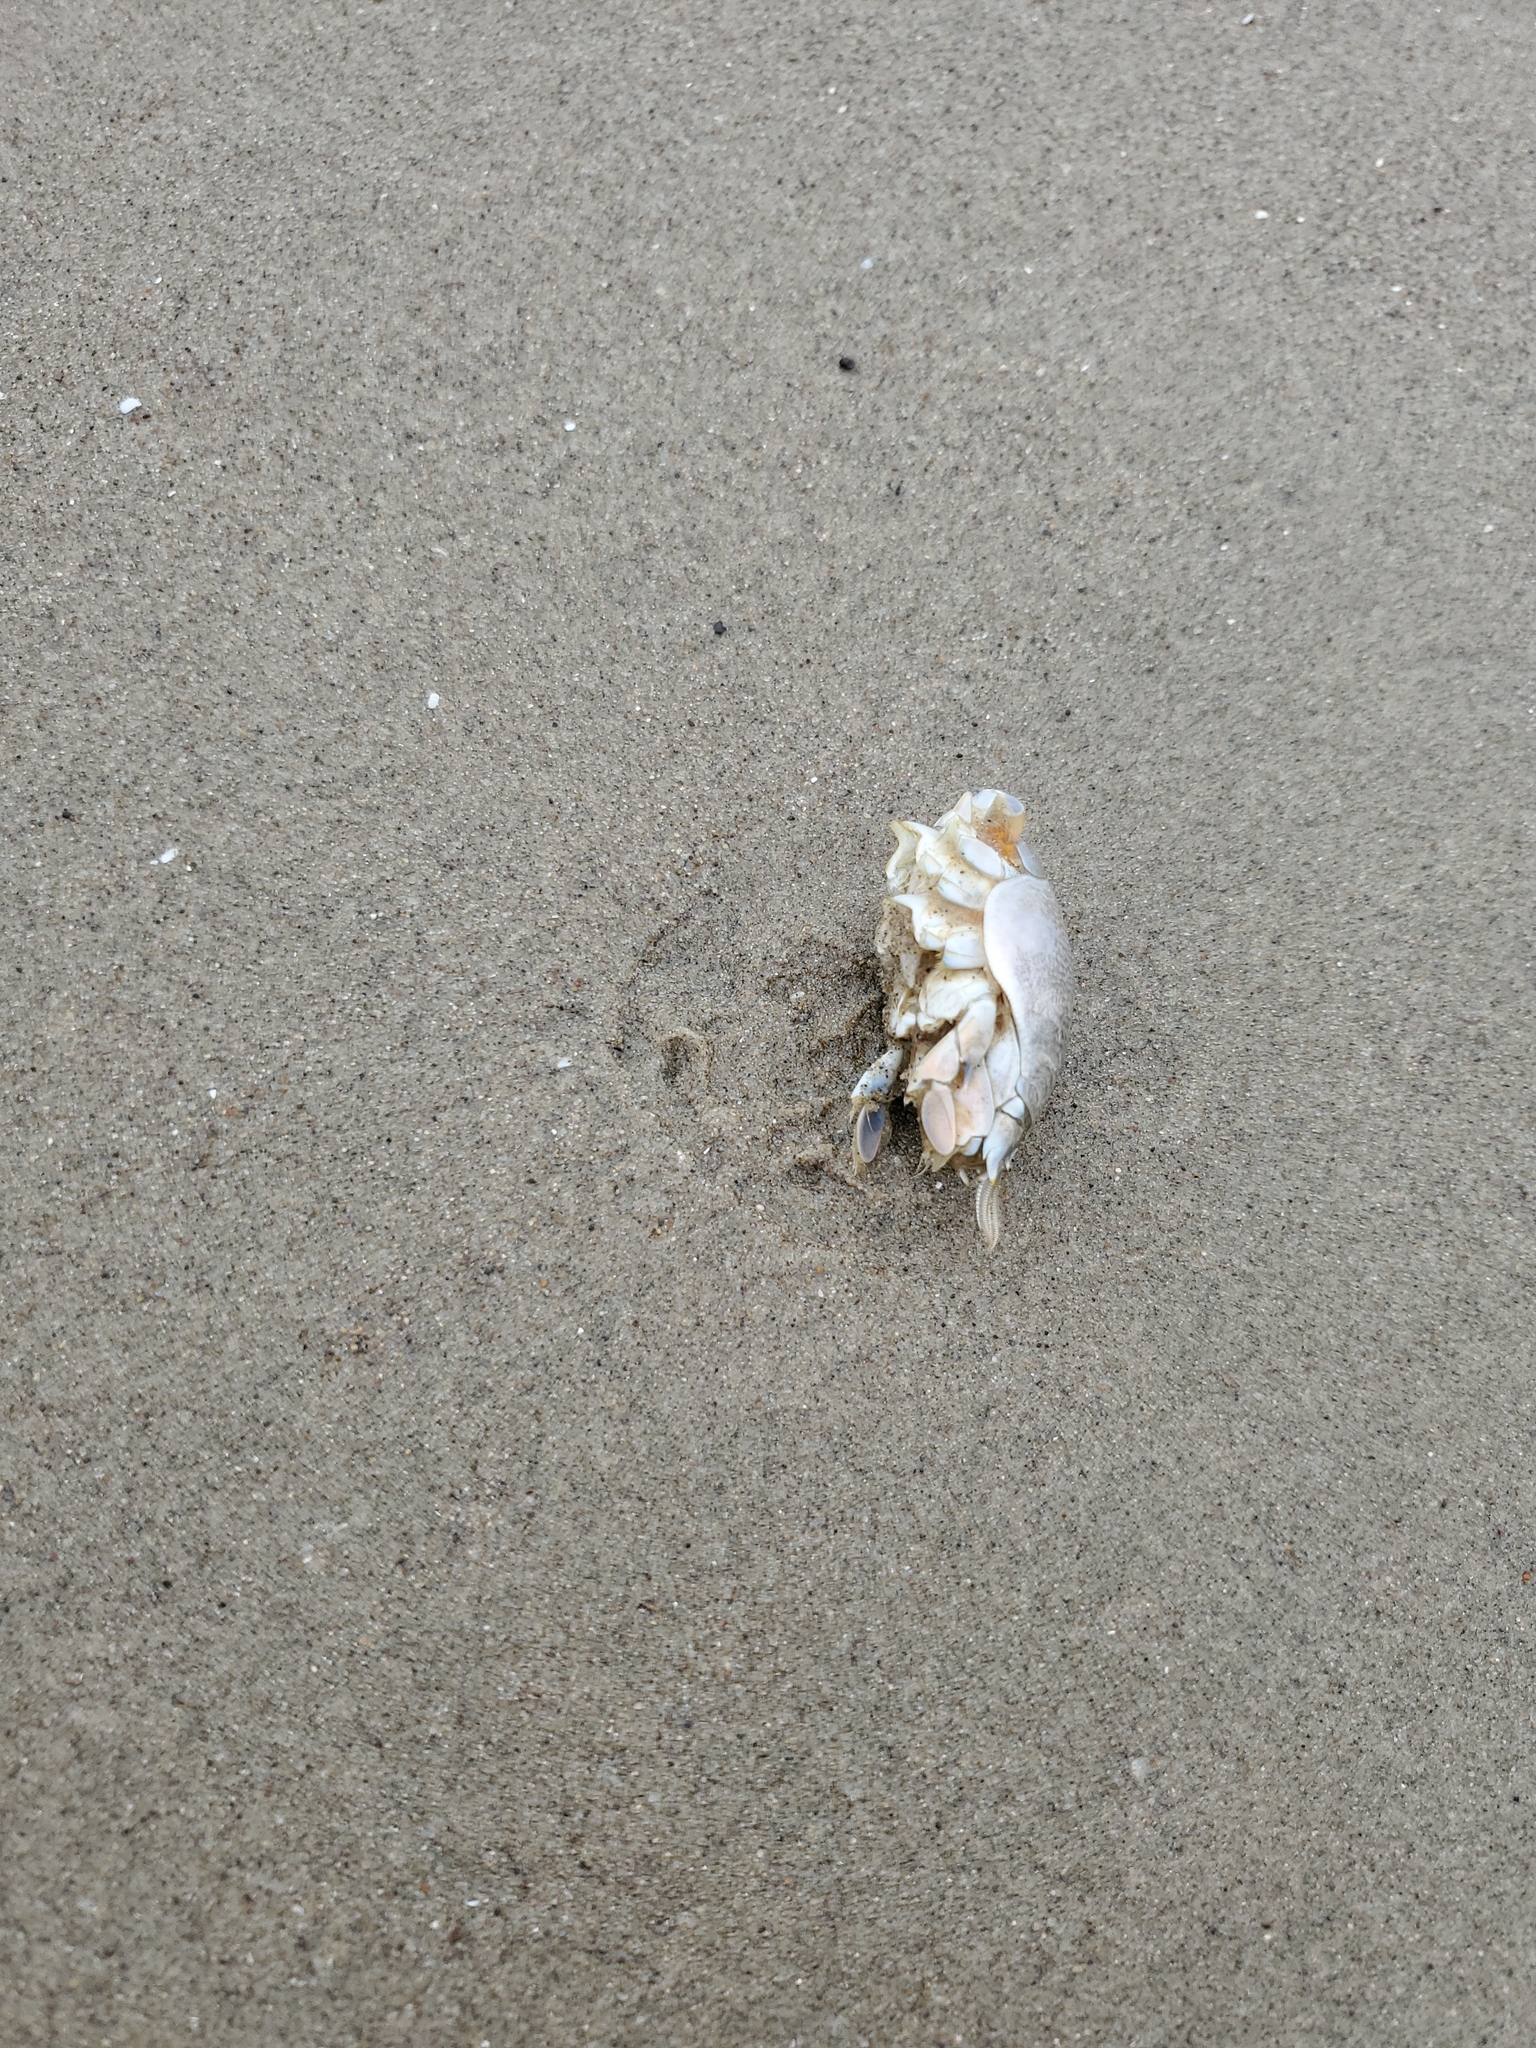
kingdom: Animalia
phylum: Arthropoda
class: Malacostraca
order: Decapoda
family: Hippidae
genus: Emerita
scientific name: Emerita analoga
